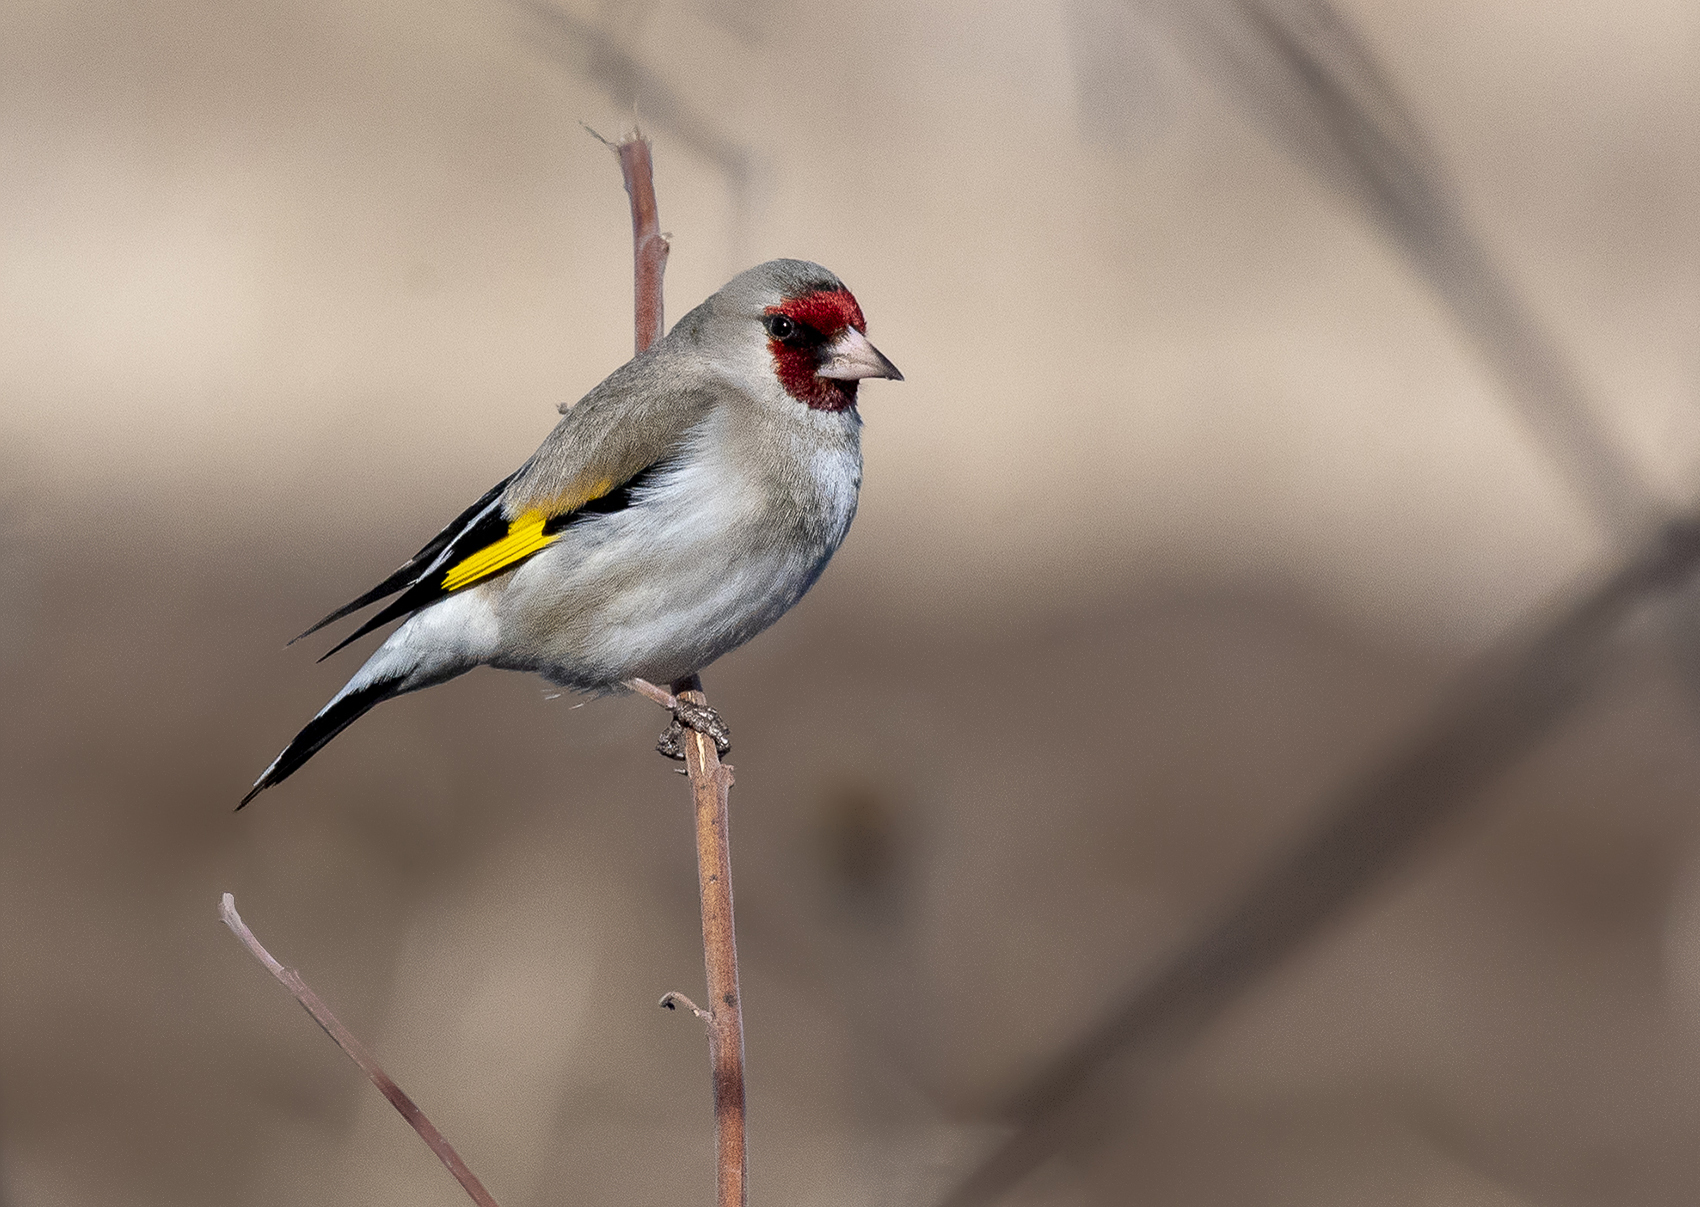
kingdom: Animalia
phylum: Chordata
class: Aves
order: Passeriformes
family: Fringillidae
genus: Carduelis
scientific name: Carduelis carduelis
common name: European goldfinch
